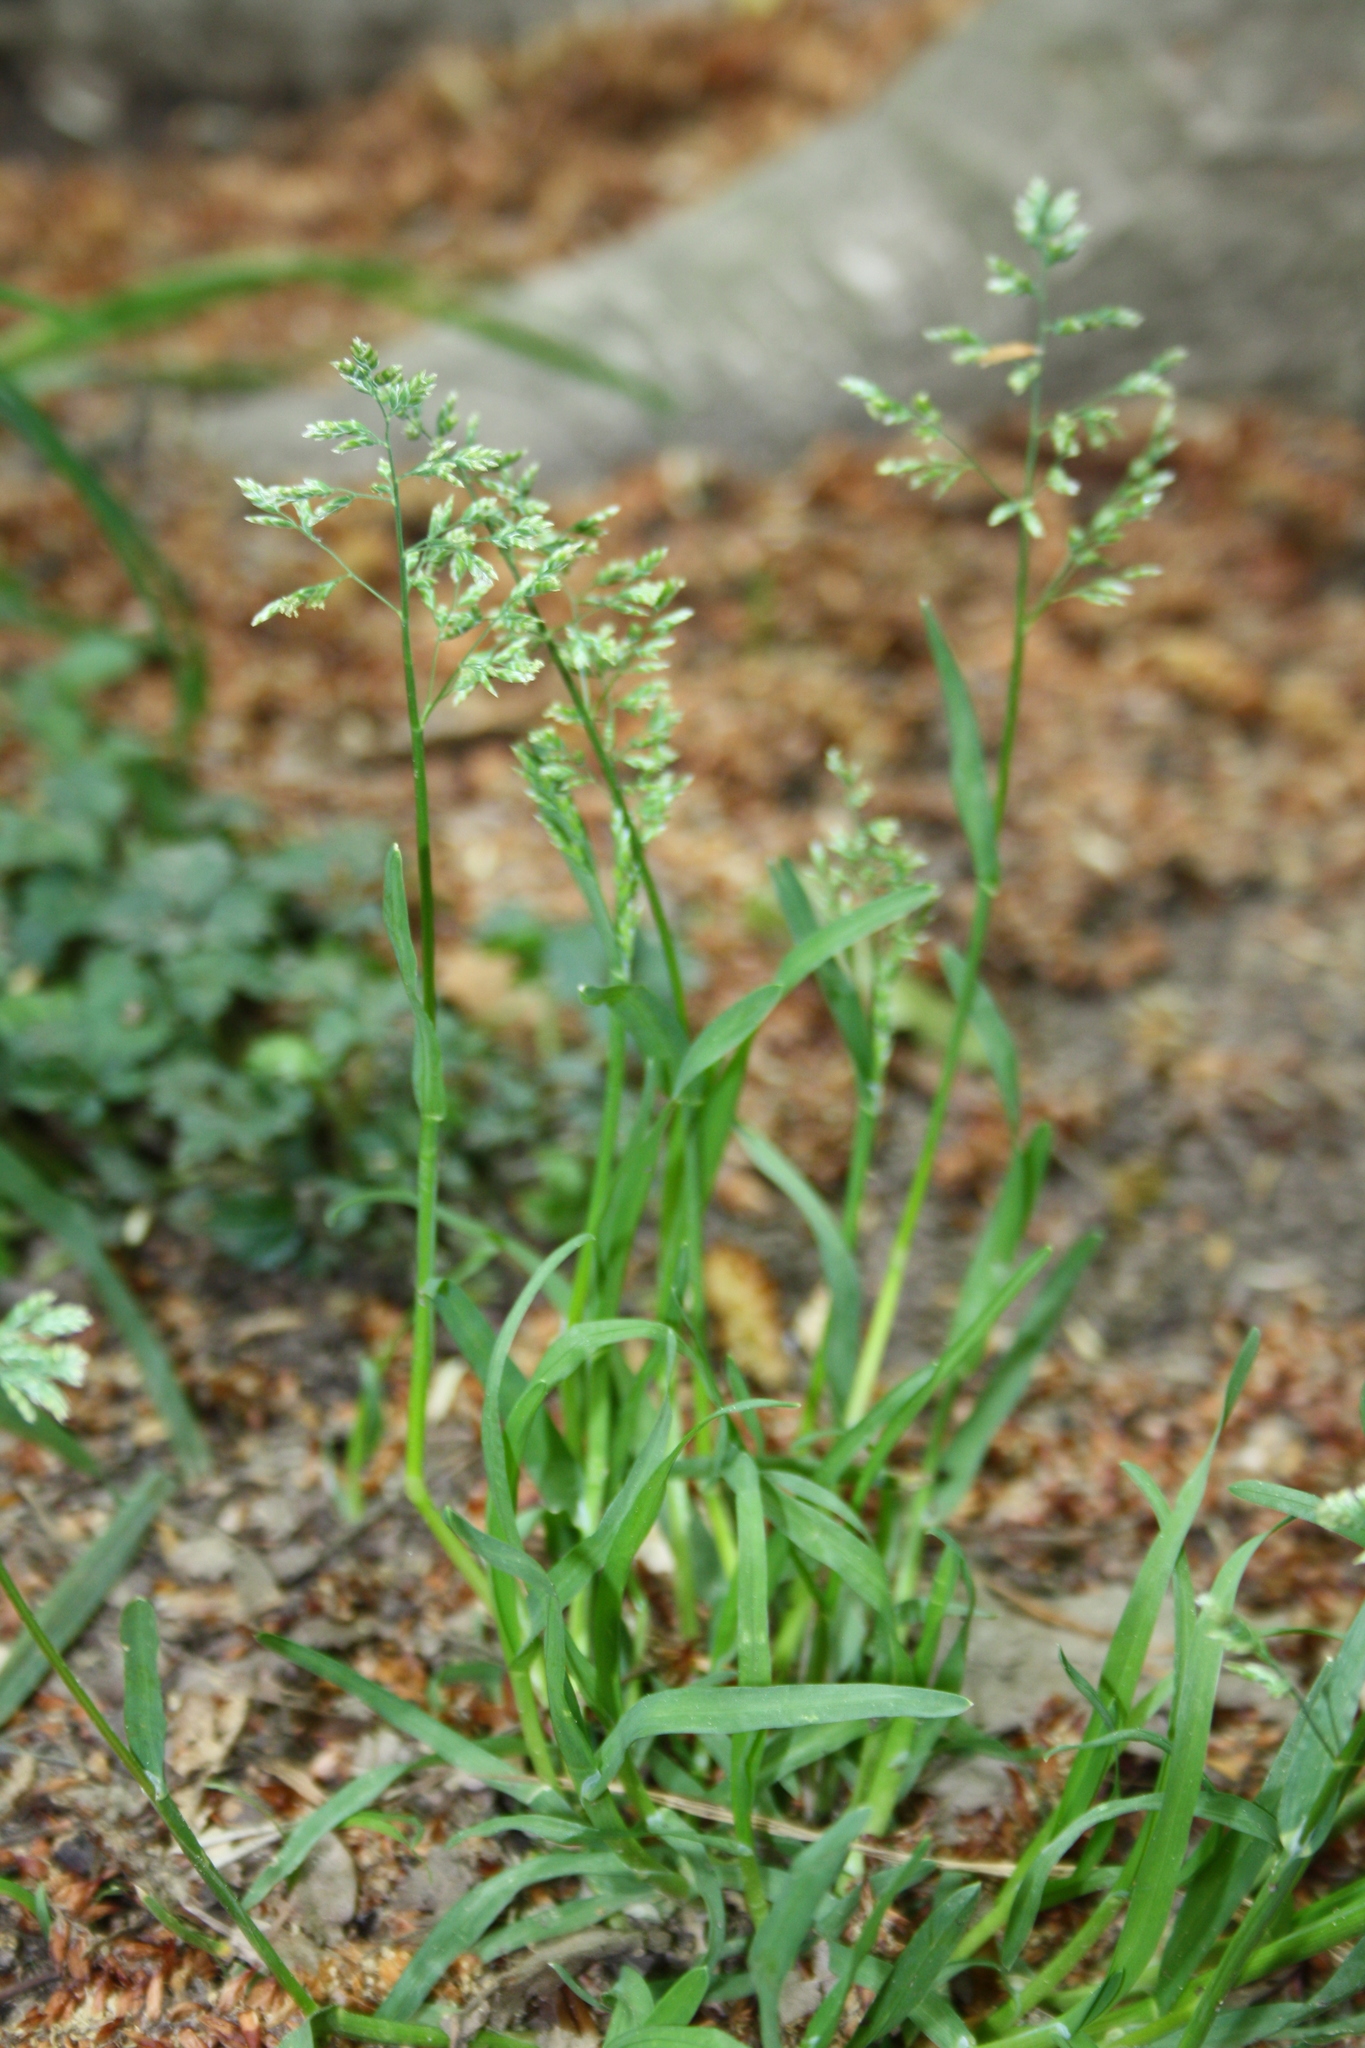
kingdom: Plantae
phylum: Tracheophyta
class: Liliopsida
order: Poales
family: Poaceae
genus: Poa
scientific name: Poa annua
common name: Annual bluegrass
